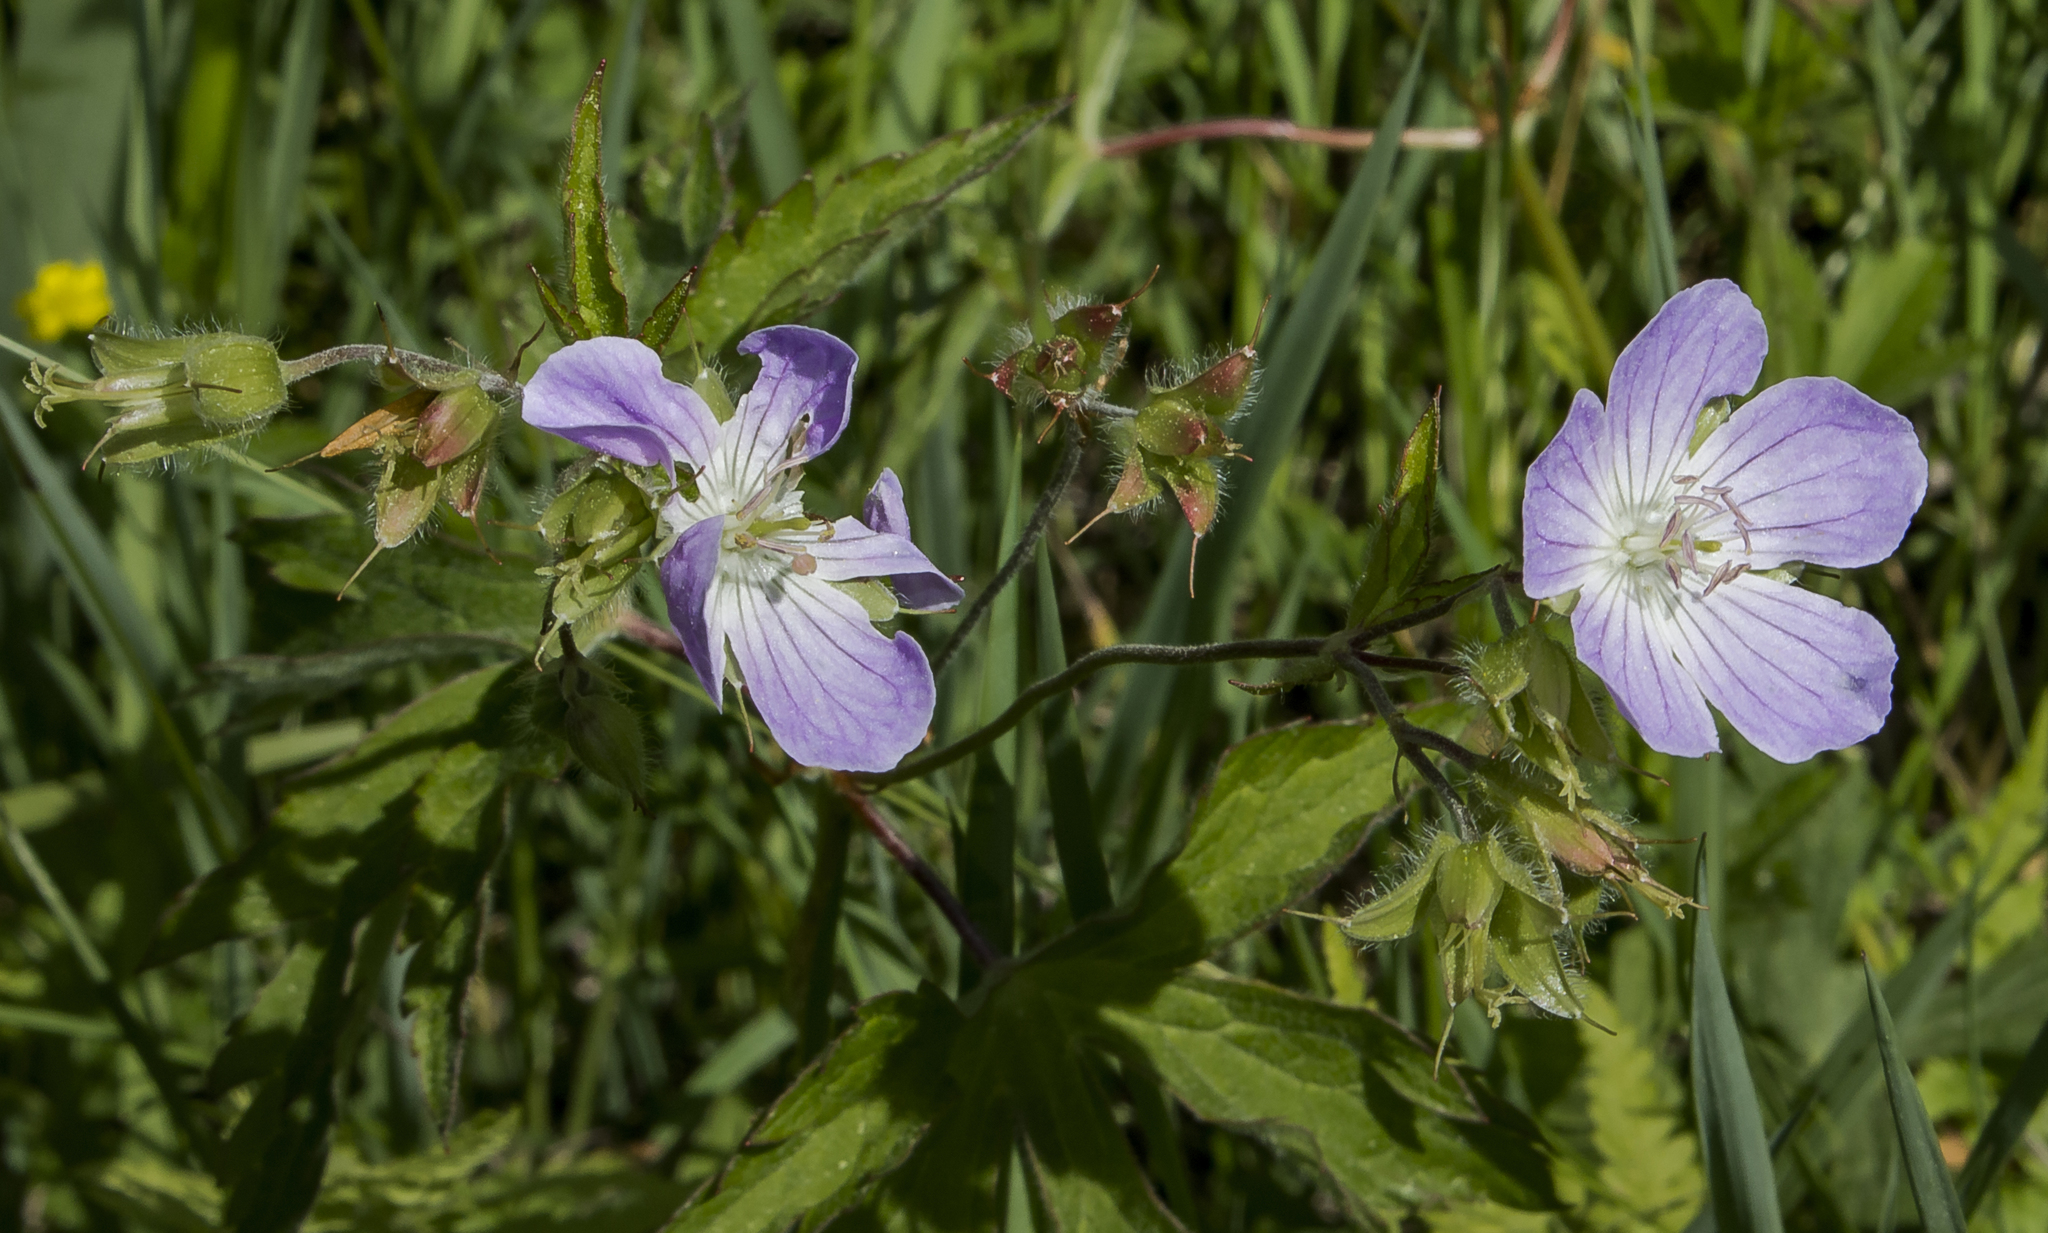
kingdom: Plantae
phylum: Tracheophyta
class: Magnoliopsida
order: Geraniales
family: Geraniaceae
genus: Geranium
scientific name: Geranium maculatum
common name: Spotted geranium
